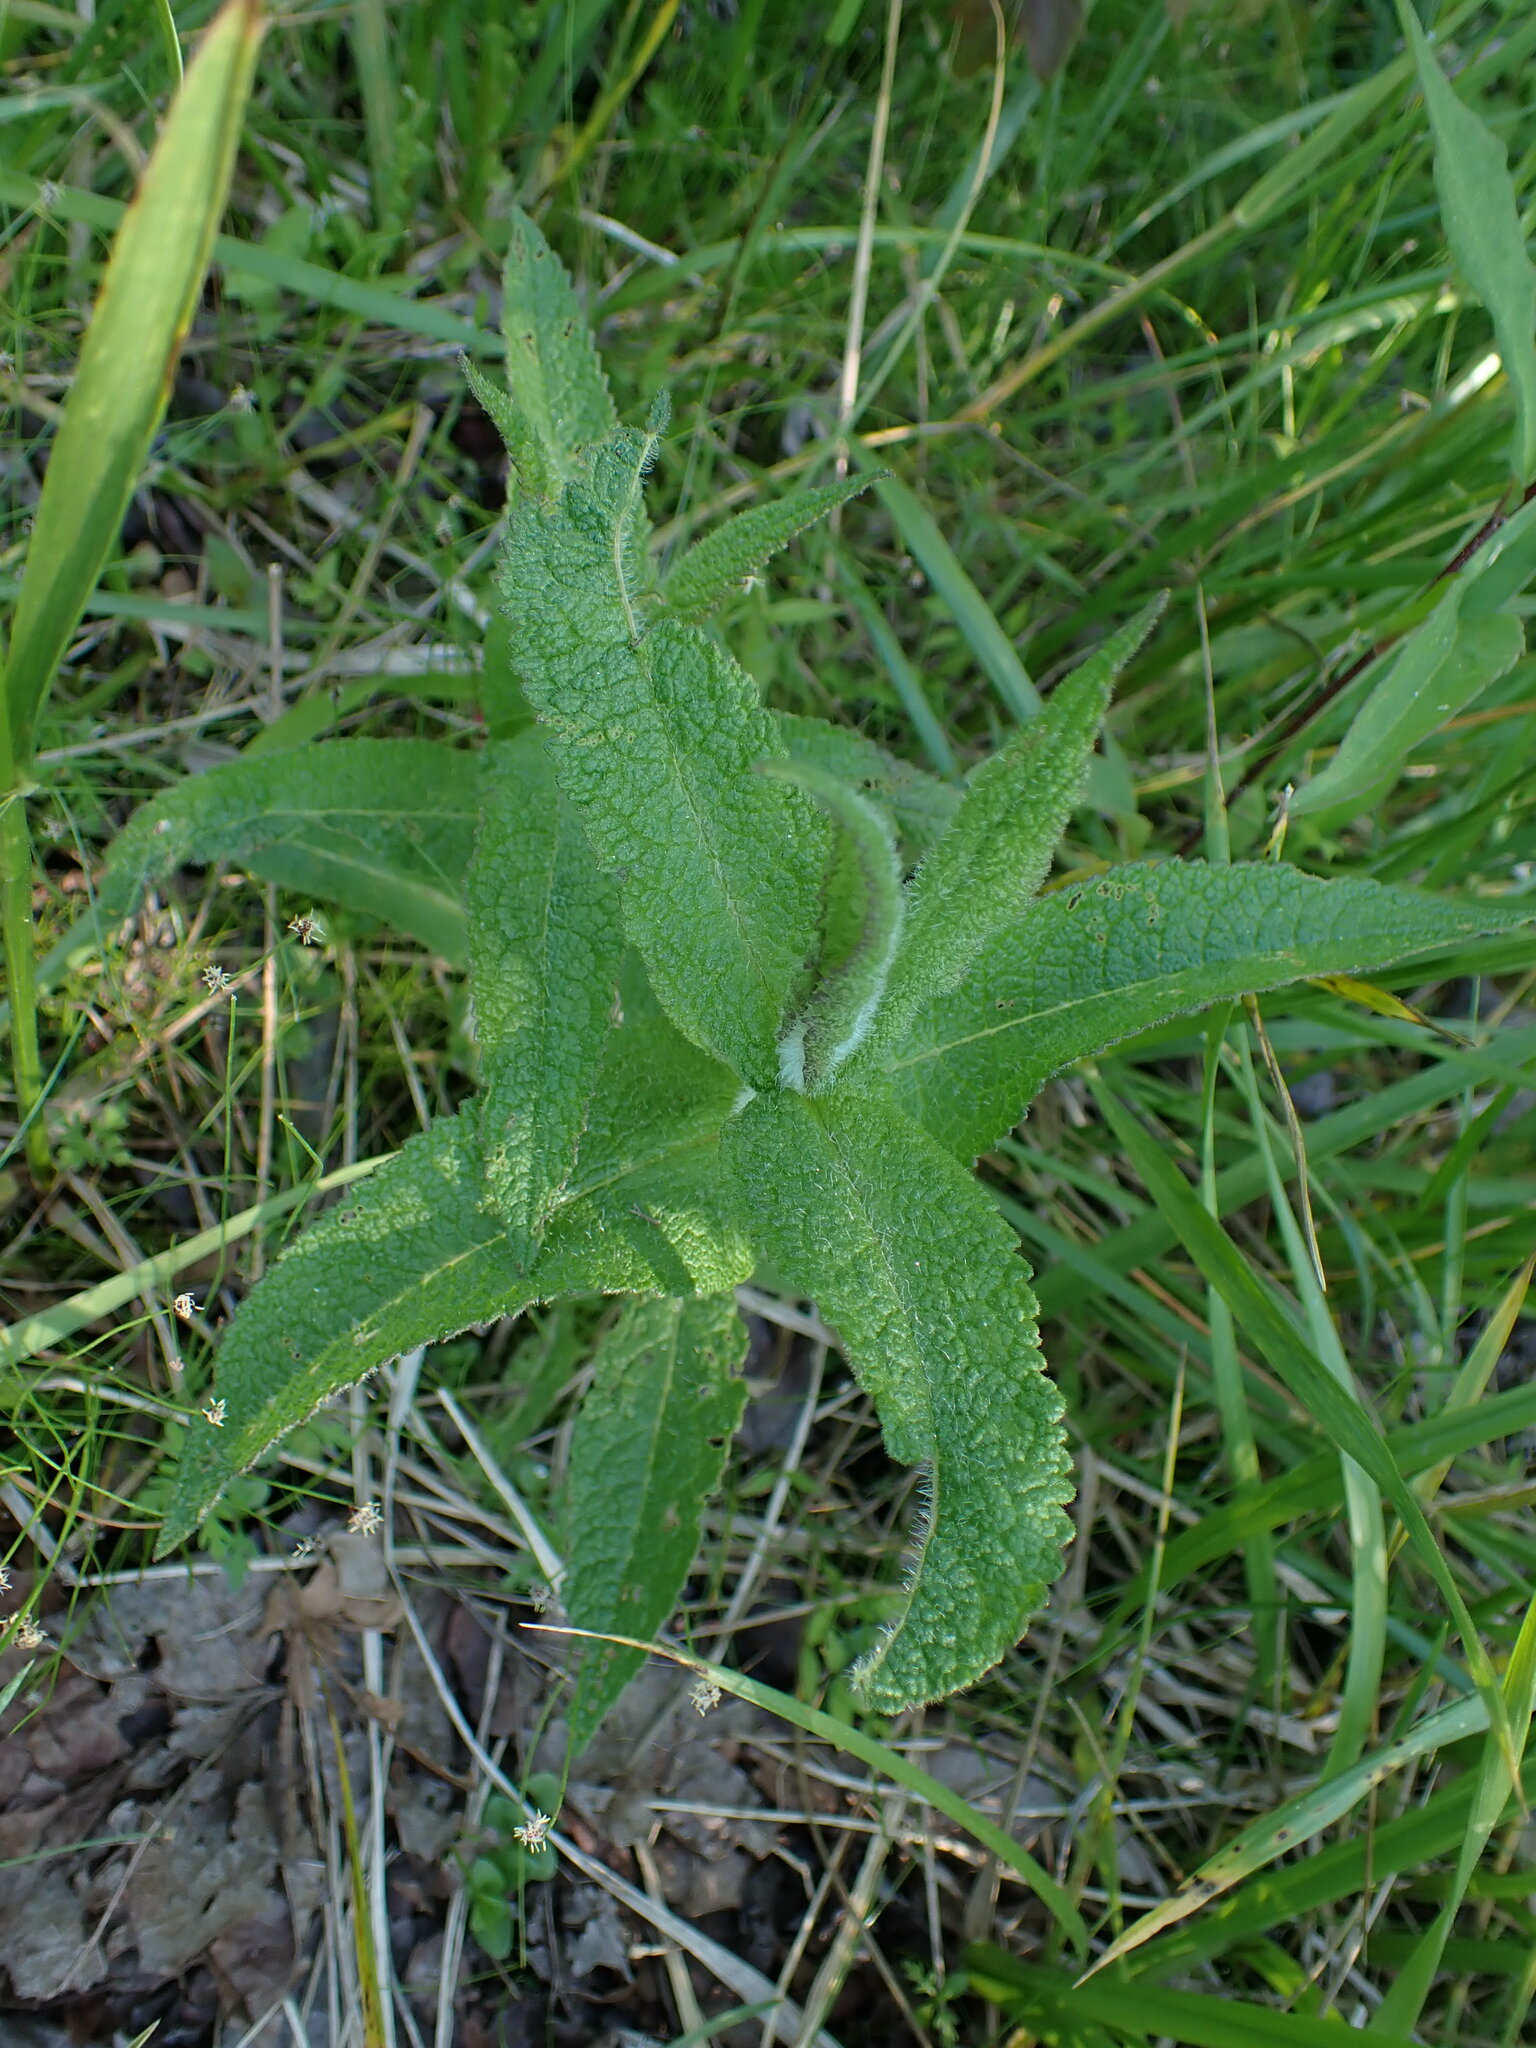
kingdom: Plantae
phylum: Tracheophyta
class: Magnoliopsida
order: Asterales
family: Asteraceae
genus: Eupatorium
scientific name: Eupatorium perfoliatum
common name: Boneset
